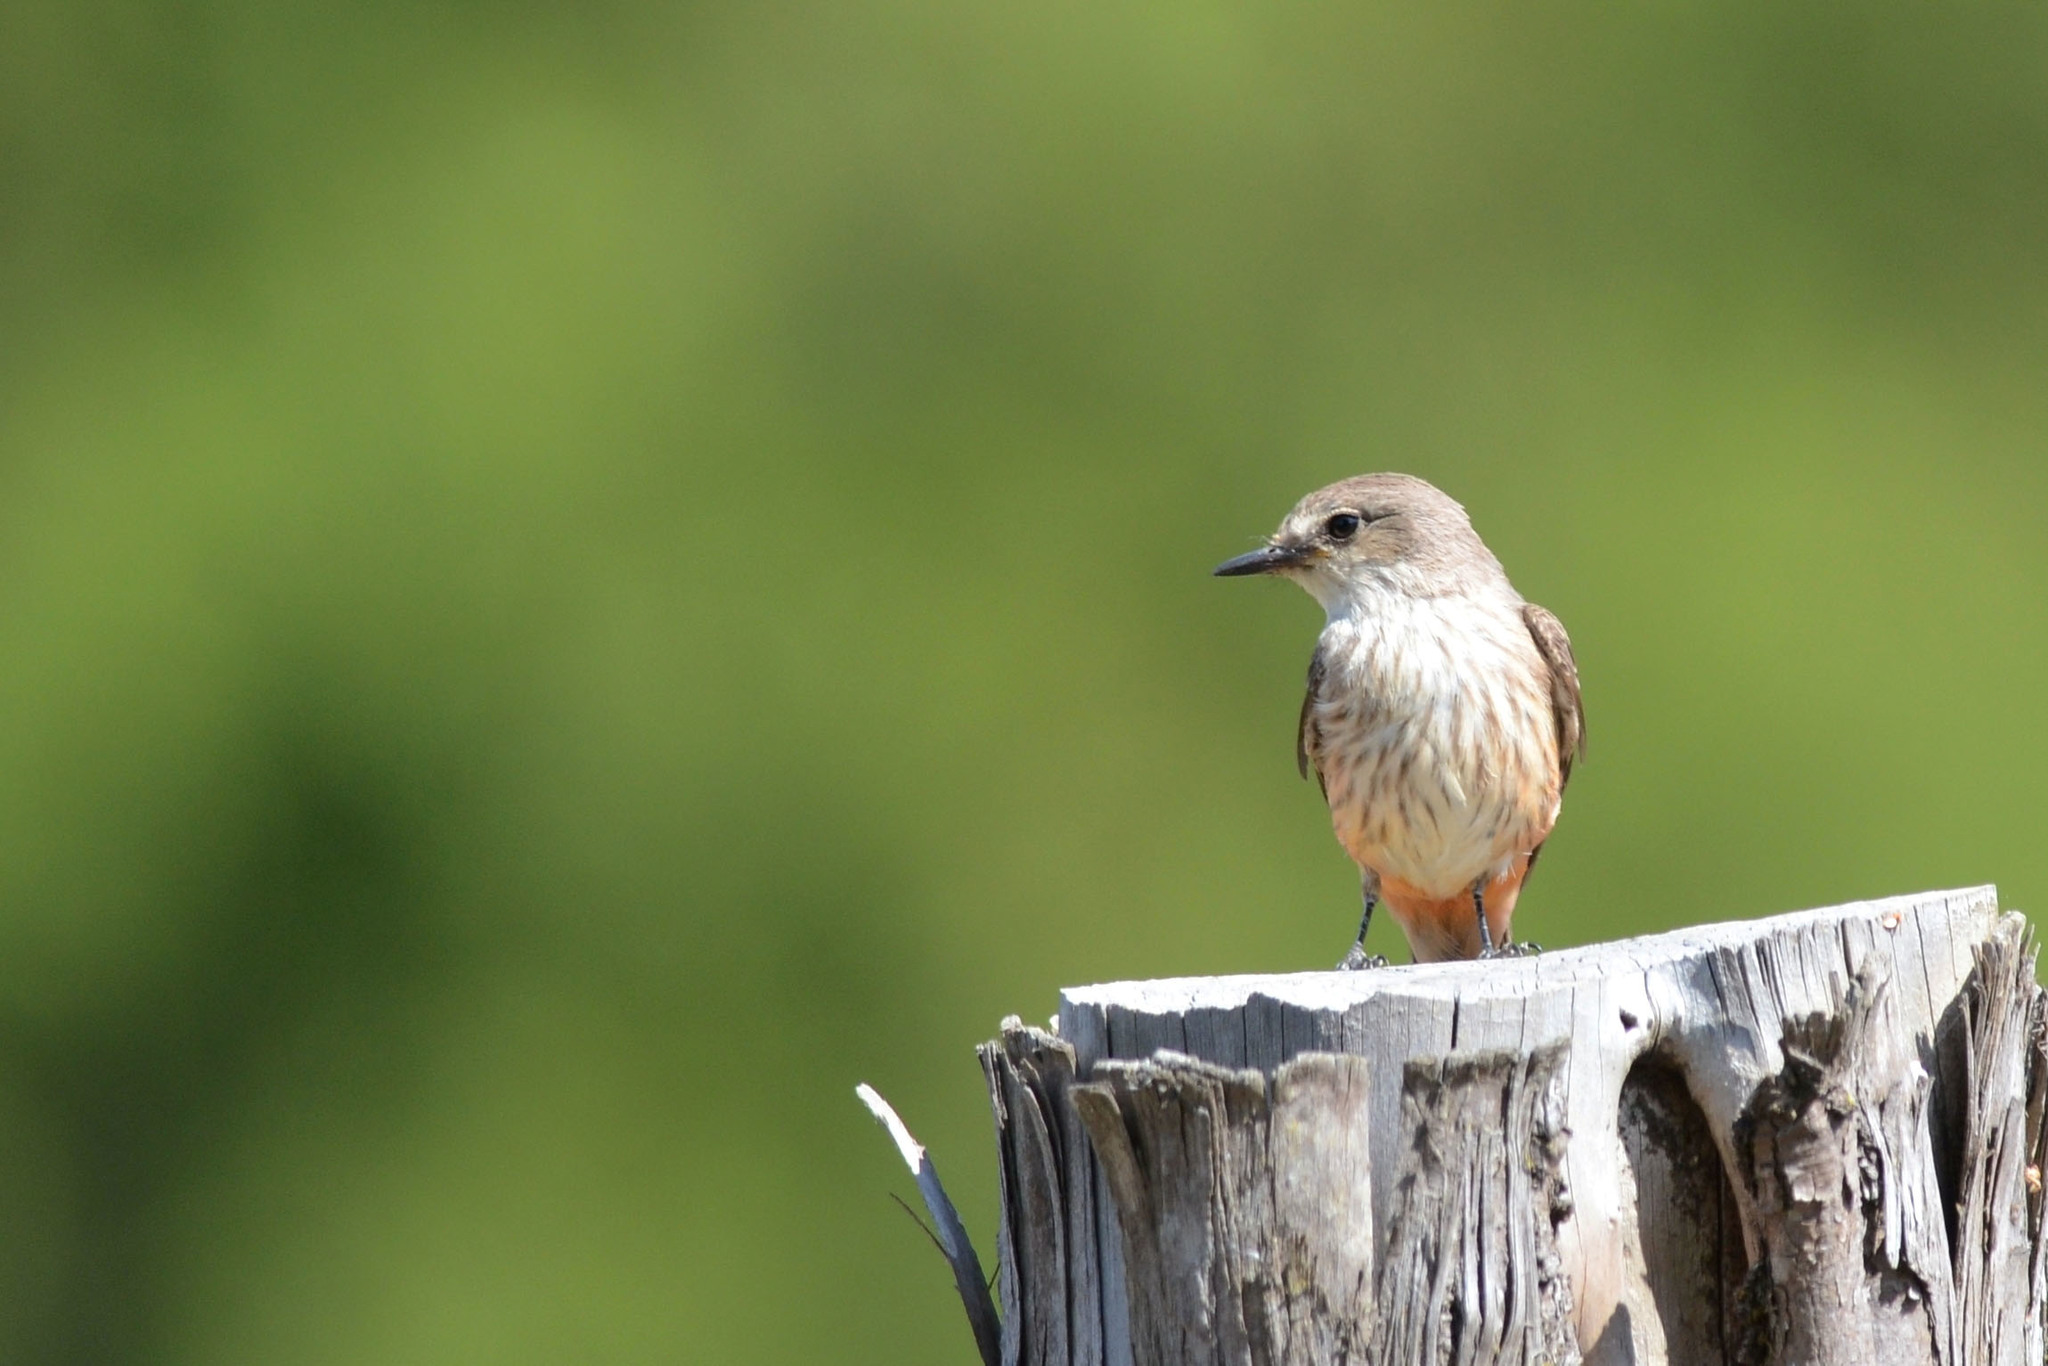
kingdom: Animalia
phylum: Chordata
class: Aves
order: Passeriformes
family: Tyrannidae
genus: Pyrocephalus
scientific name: Pyrocephalus rubinus
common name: Vermilion flycatcher
